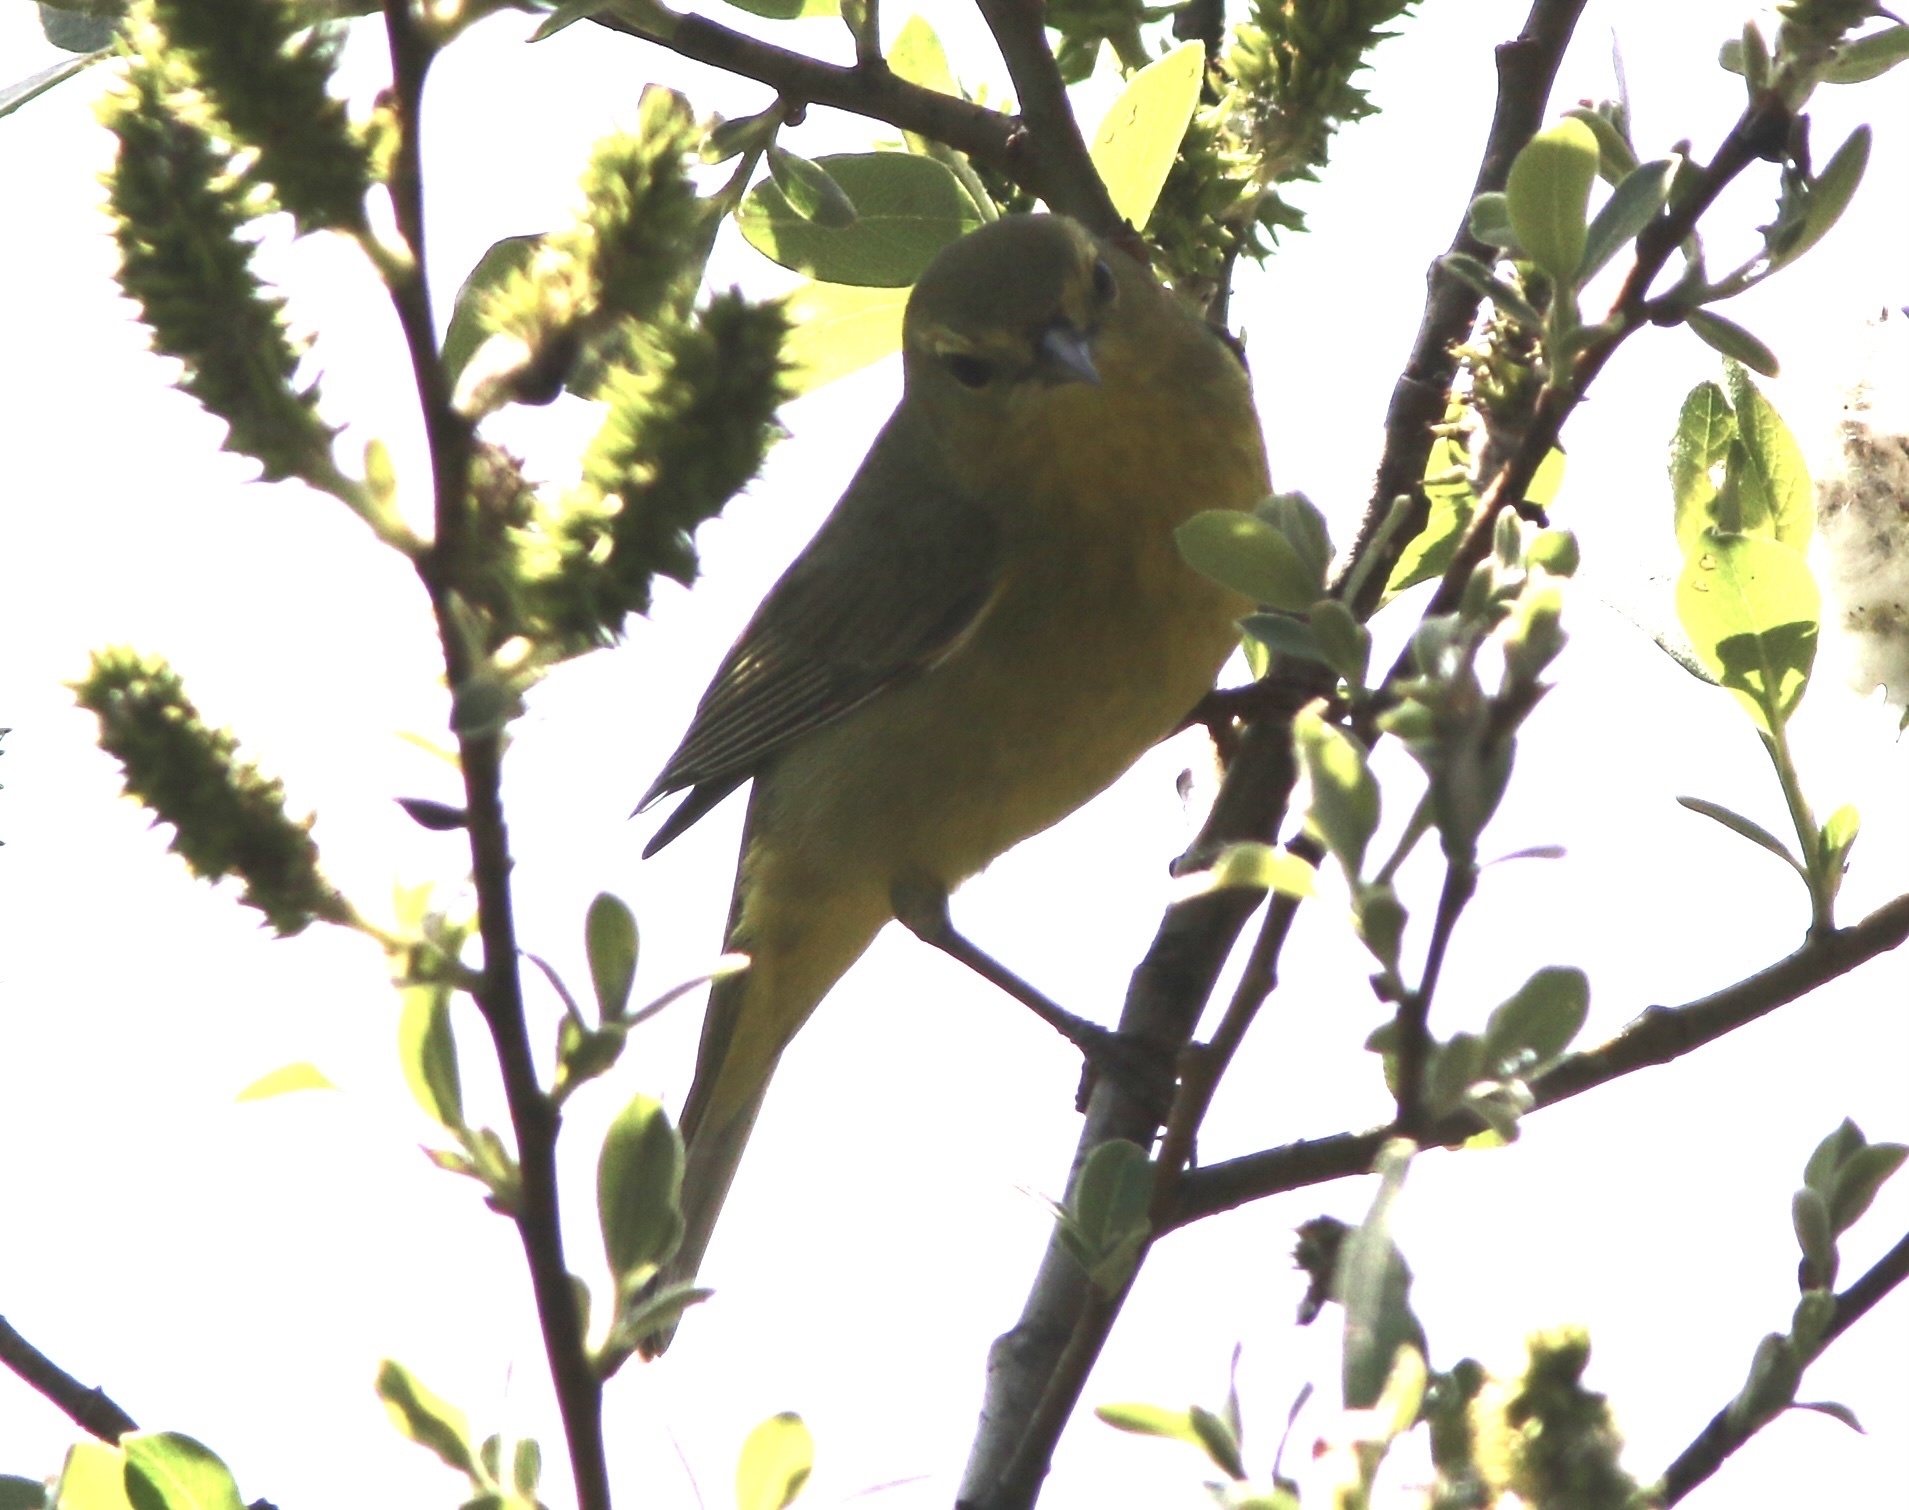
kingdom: Animalia
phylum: Chordata
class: Aves
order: Passeriformes
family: Parulidae
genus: Leiothlypis
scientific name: Leiothlypis celata
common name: Orange-crowned warbler
